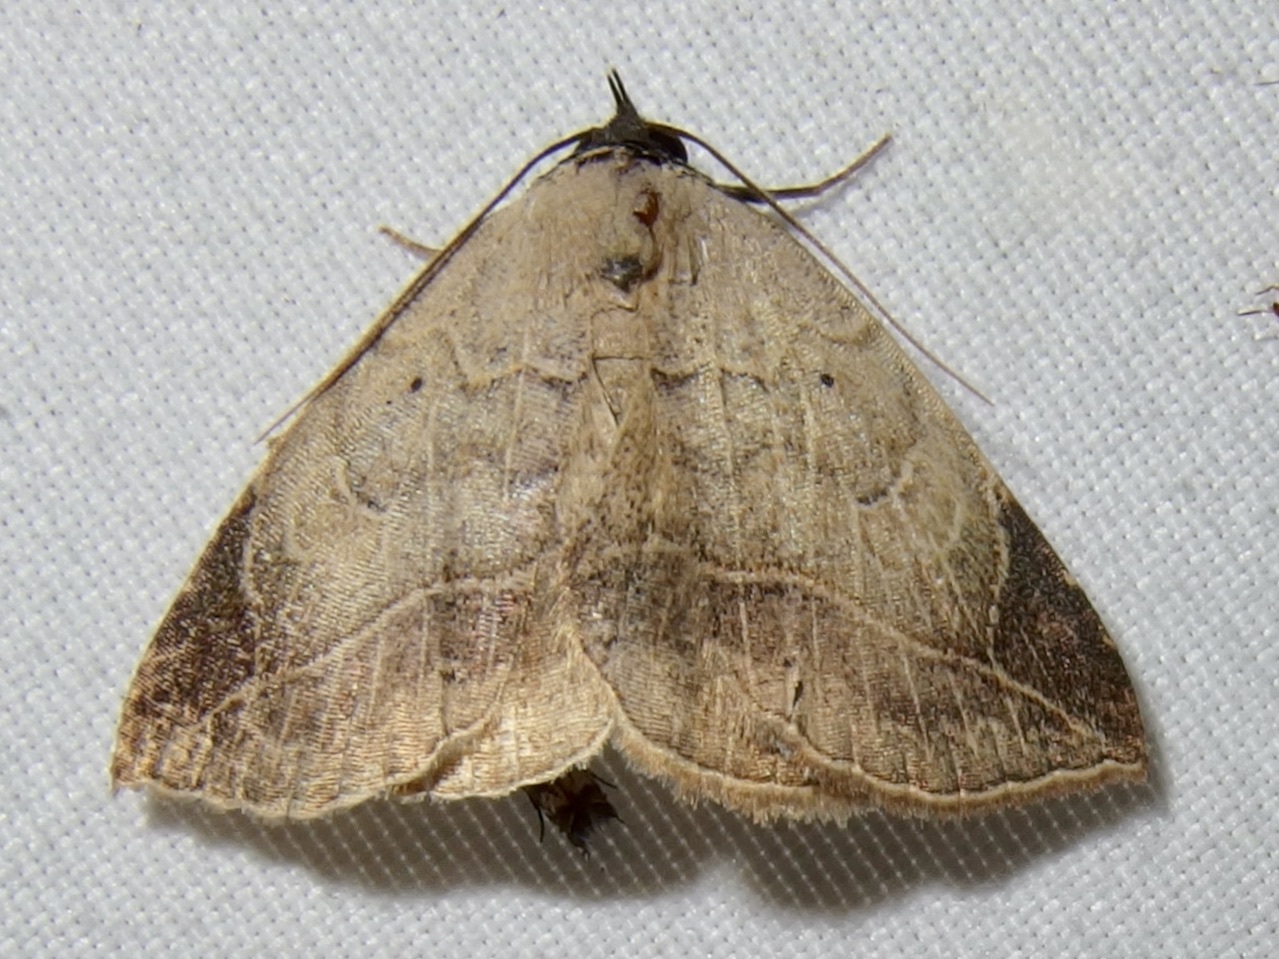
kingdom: Animalia
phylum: Arthropoda
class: Insecta
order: Lepidoptera
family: Erebidae
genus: Isogona
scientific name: Isogona segura
